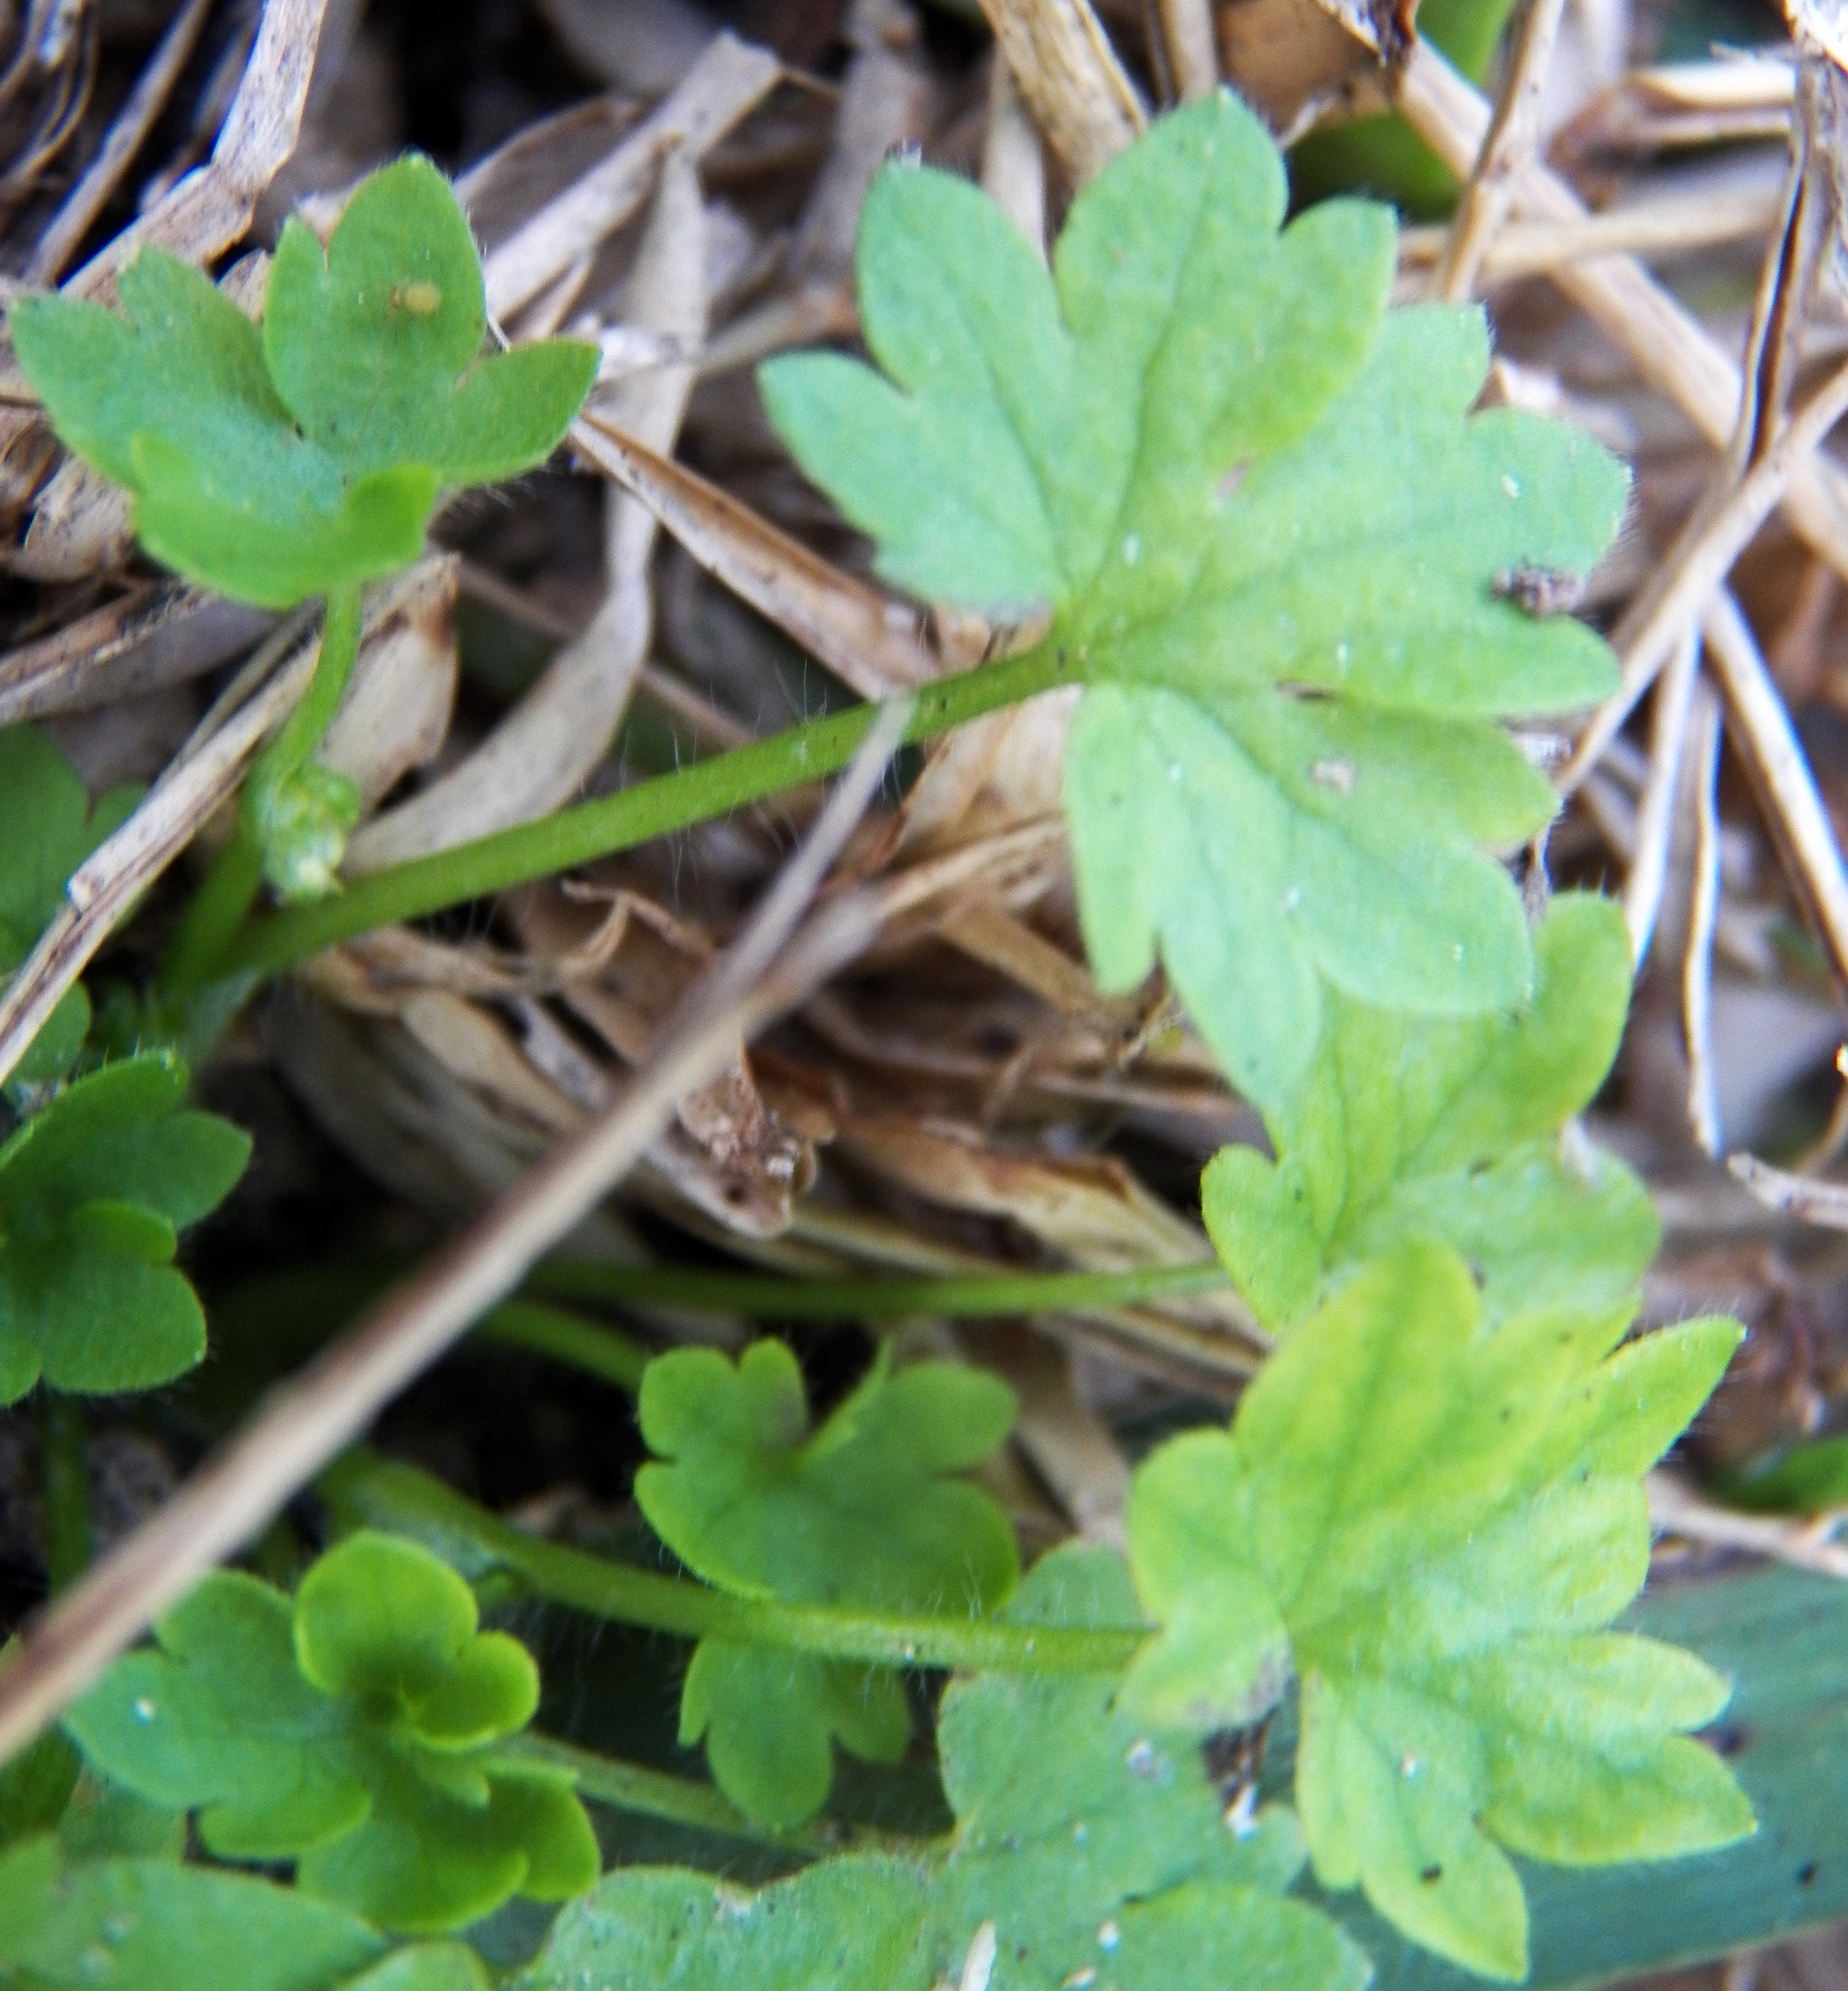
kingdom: Plantae
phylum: Tracheophyta
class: Magnoliopsida
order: Ranunculales
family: Ranunculaceae
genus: Ranunculus
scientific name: Ranunculus platensis
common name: Prairie buttercup
